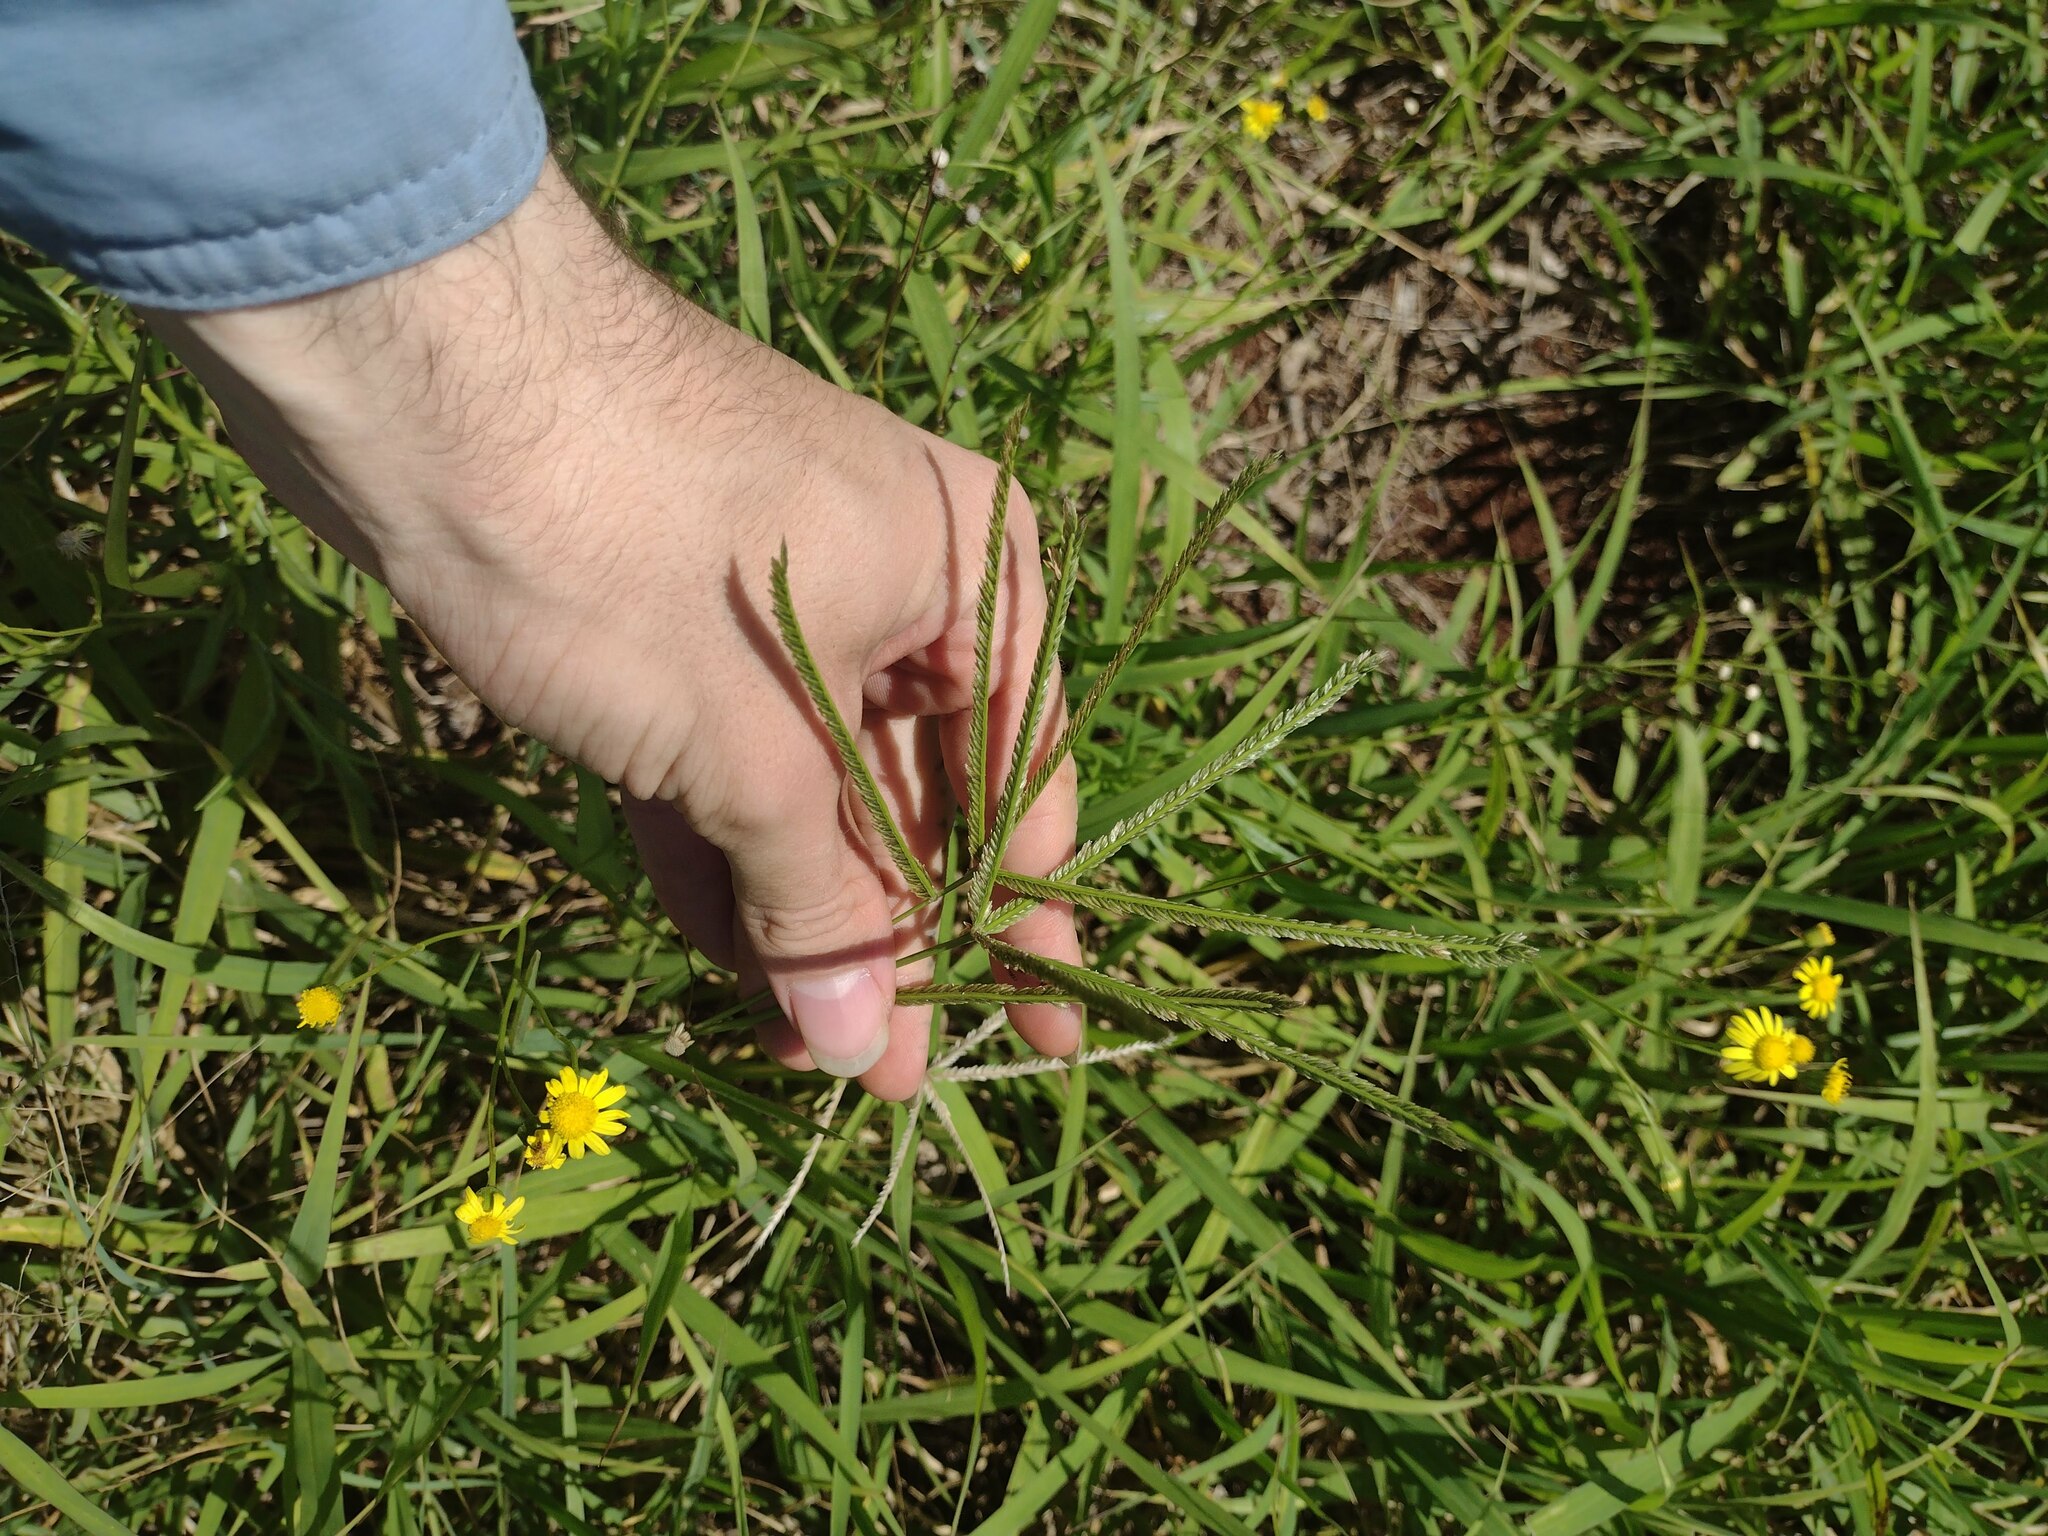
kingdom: Plantae
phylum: Tracheophyta
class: Liliopsida
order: Poales
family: Poaceae
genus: Eleusine
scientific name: Eleusine indica
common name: Yard-grass
